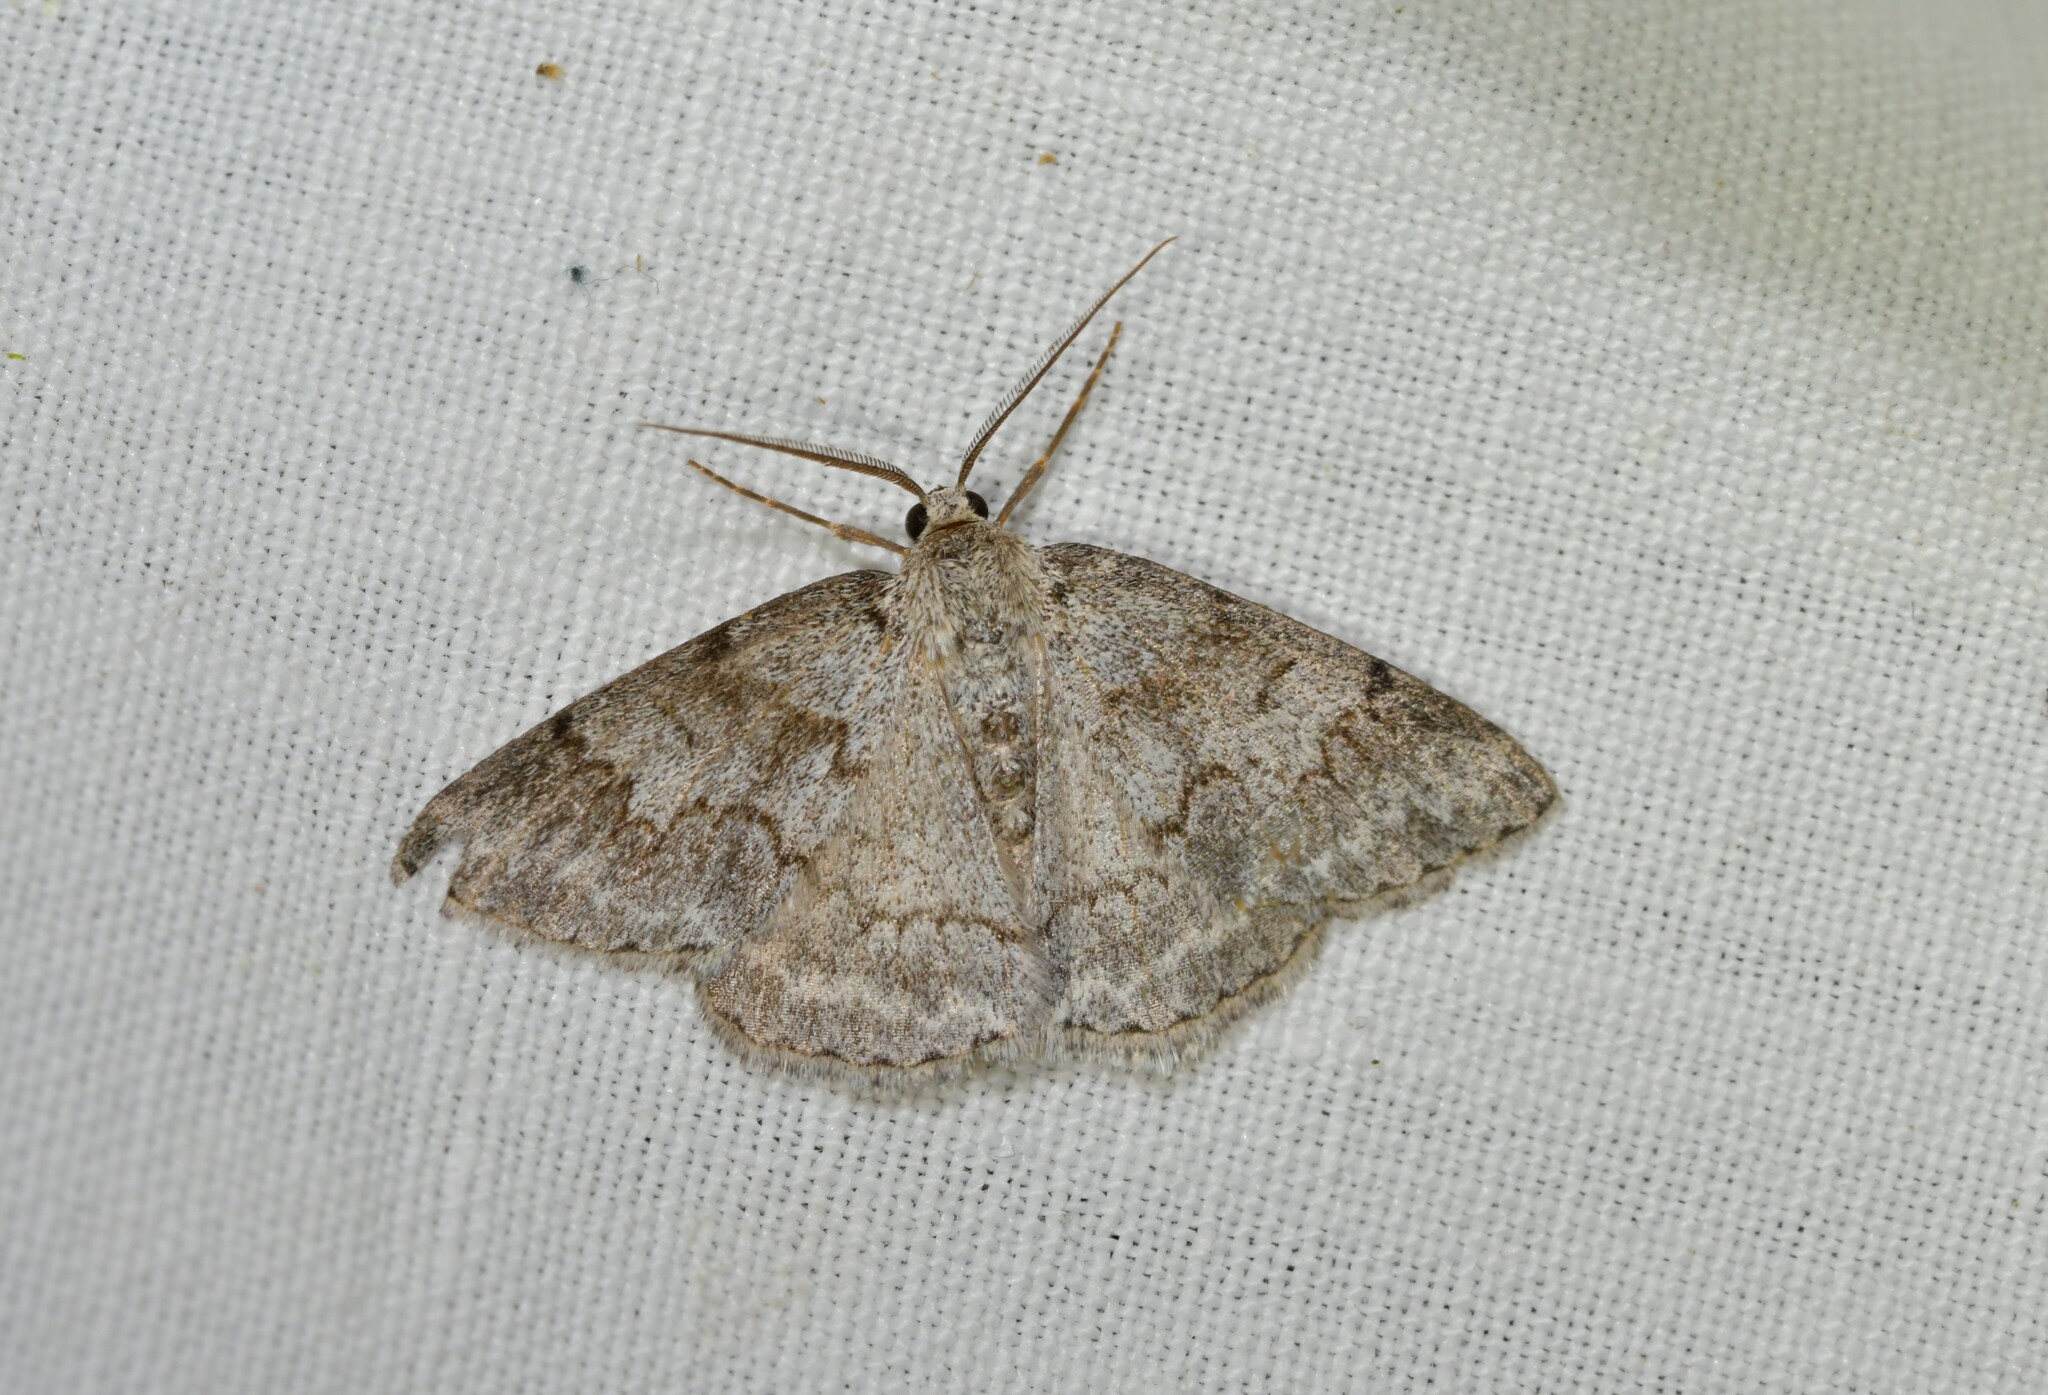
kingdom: Animalia
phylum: Arthropoda
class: Insecta
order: Lepidoptera
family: Geometridae
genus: Pseudoterpna
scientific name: Pseudoterpna coronillaria
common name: Jersey emerald
